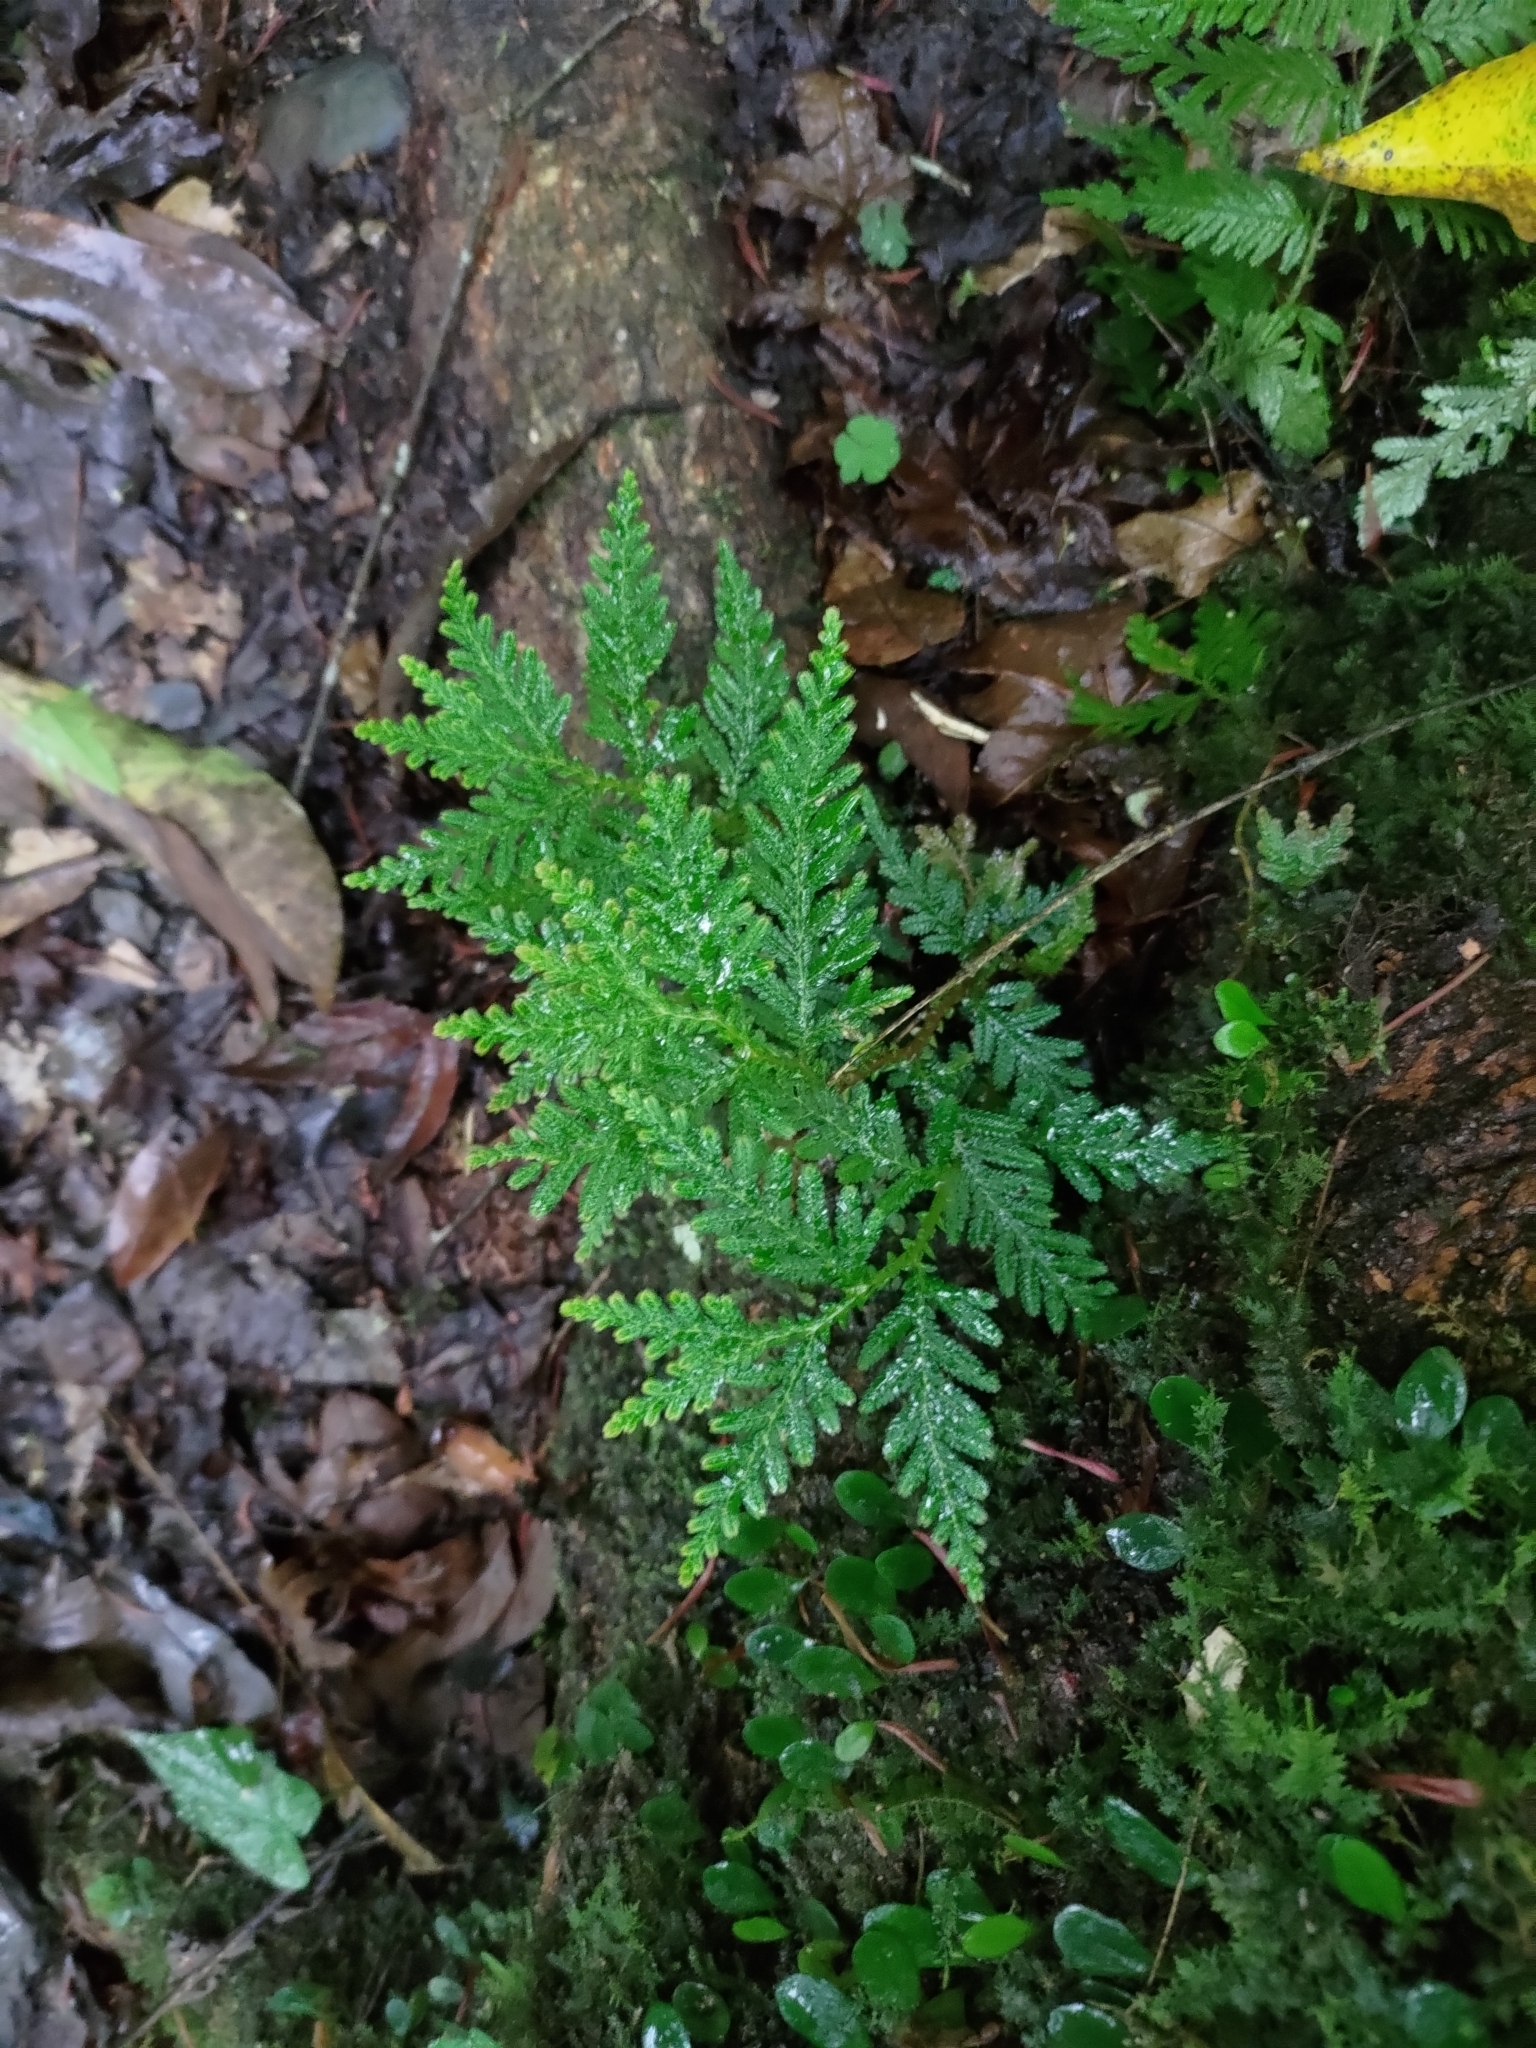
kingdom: Plantae
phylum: Tracheophyta
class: Lycopodiopsida
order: Selaginellales
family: Selaginellaceae
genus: Selaginella
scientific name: Selaginella delicatula
